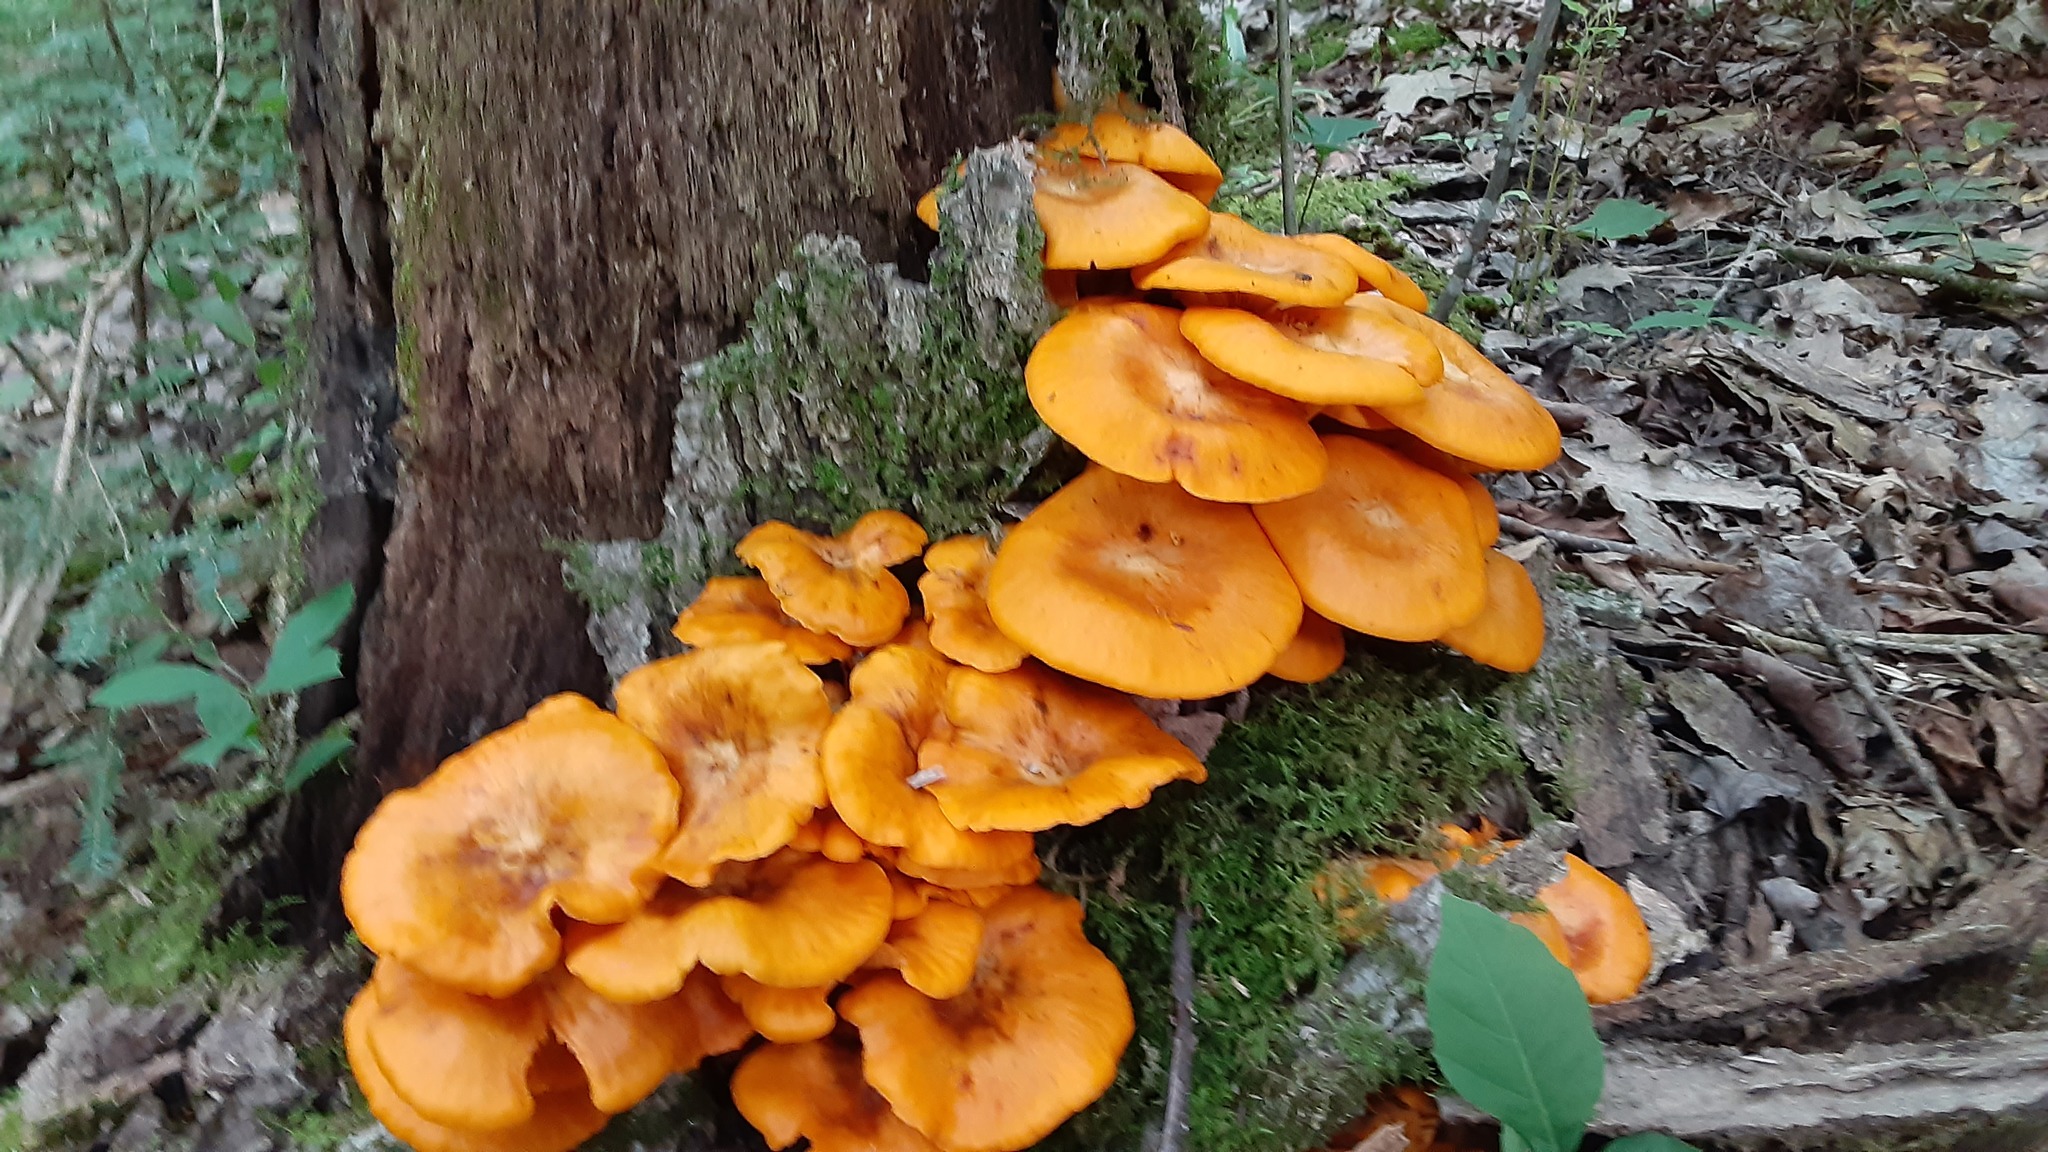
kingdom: Fungi
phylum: Basidiomycota
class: Agaricomycetes
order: Agaricales
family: Omphalotaceae
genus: Omphalotus
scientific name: Omphalotus illudens
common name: Jack o lantern
